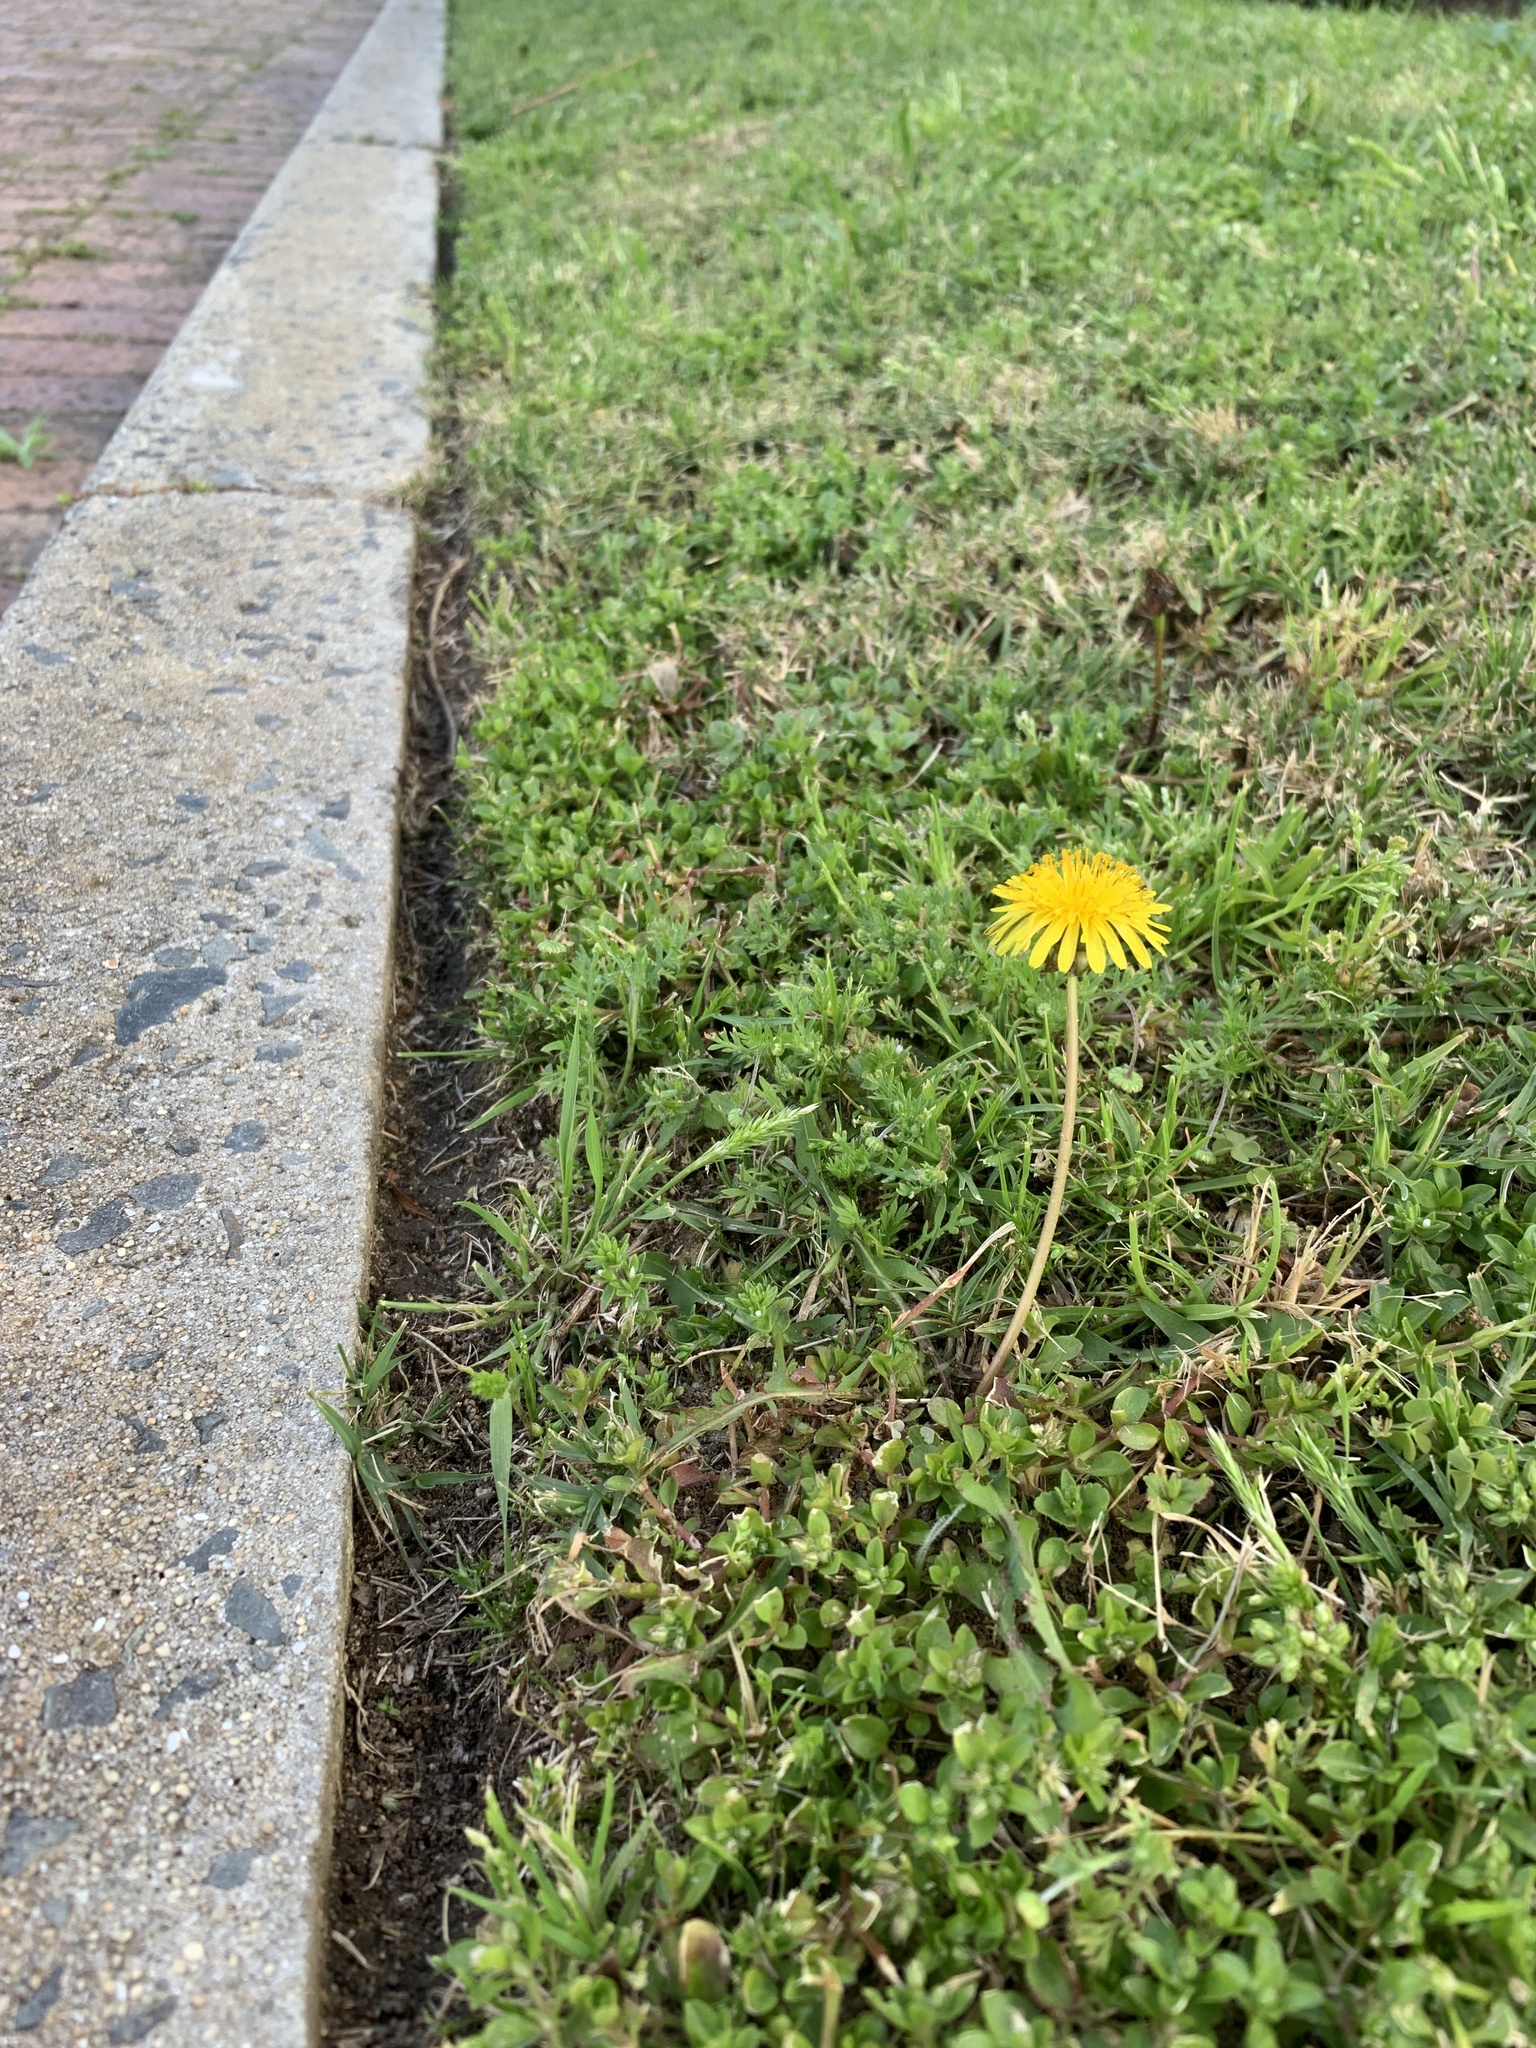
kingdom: Plantae
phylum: Tracheophyta
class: Magnoliopsida
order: Asterales
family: Asteraceae
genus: Taraxacum
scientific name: Taraxacum officinale
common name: Common dandelion
